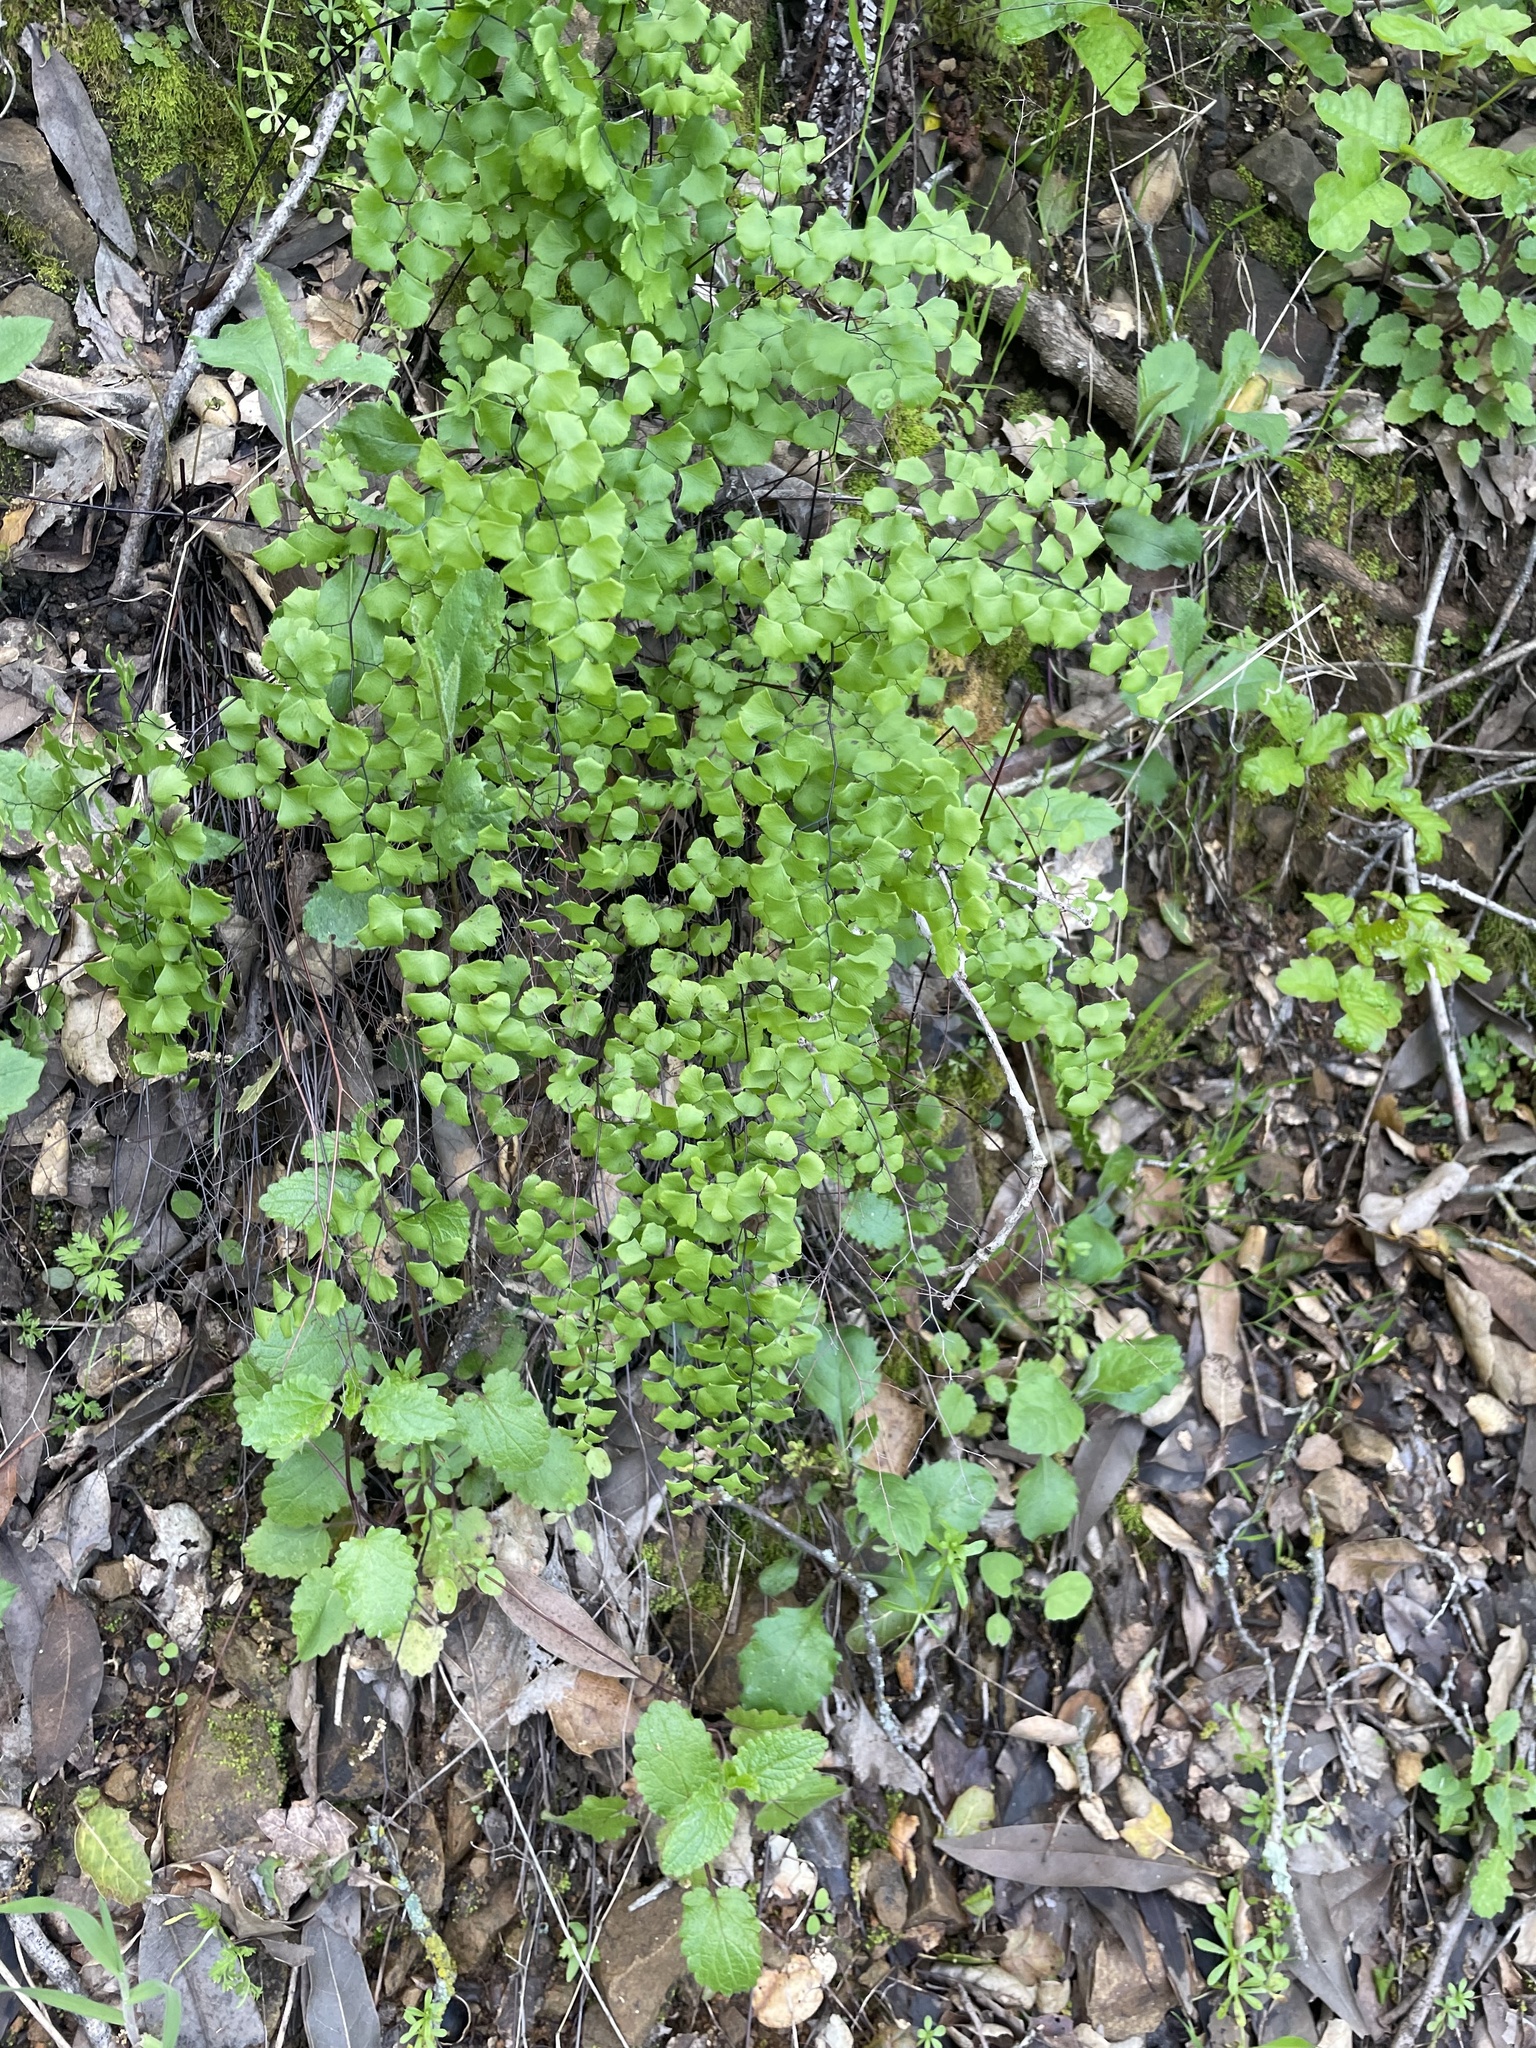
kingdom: Plantae
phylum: Tracheophyta
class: Polypodiopsida
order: Polypodiales
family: Pteridaceae
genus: Adiantum
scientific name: Adiantum jordanii
